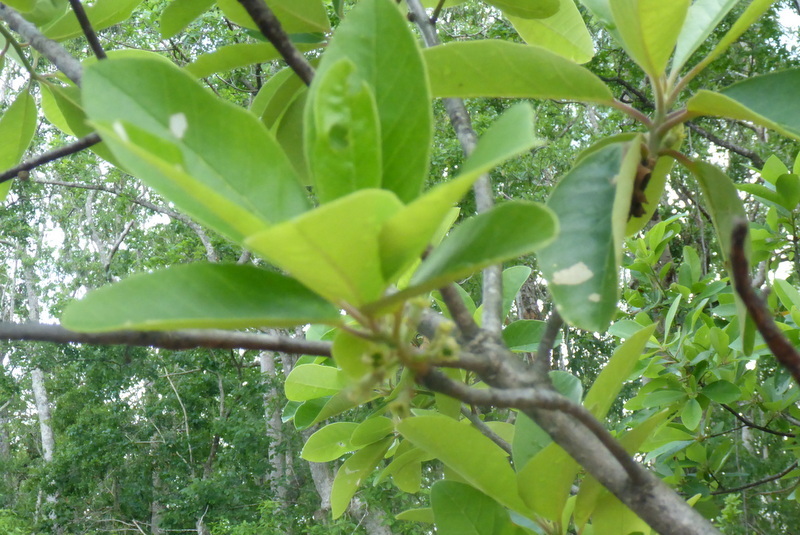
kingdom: Plantae
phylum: Tracheophyta
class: Magnoliopsida
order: Cornales
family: Nyssaceae
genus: Nyssa
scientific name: Nyssa ogeche
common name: Ogeechee tupelo
